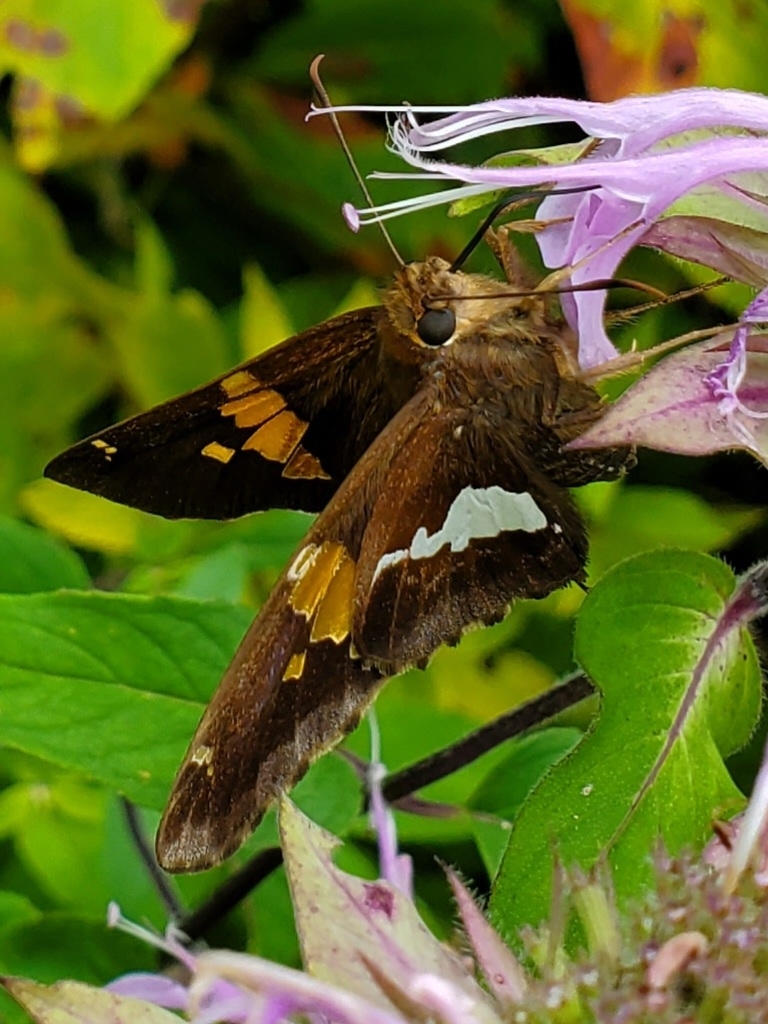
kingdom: Animalia
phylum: Arthropoda
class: Insecta
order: Lepidoptera
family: Hesperiidae
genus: Epargyreus
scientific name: Epargyreus clarus
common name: Silver-spotted skipper
